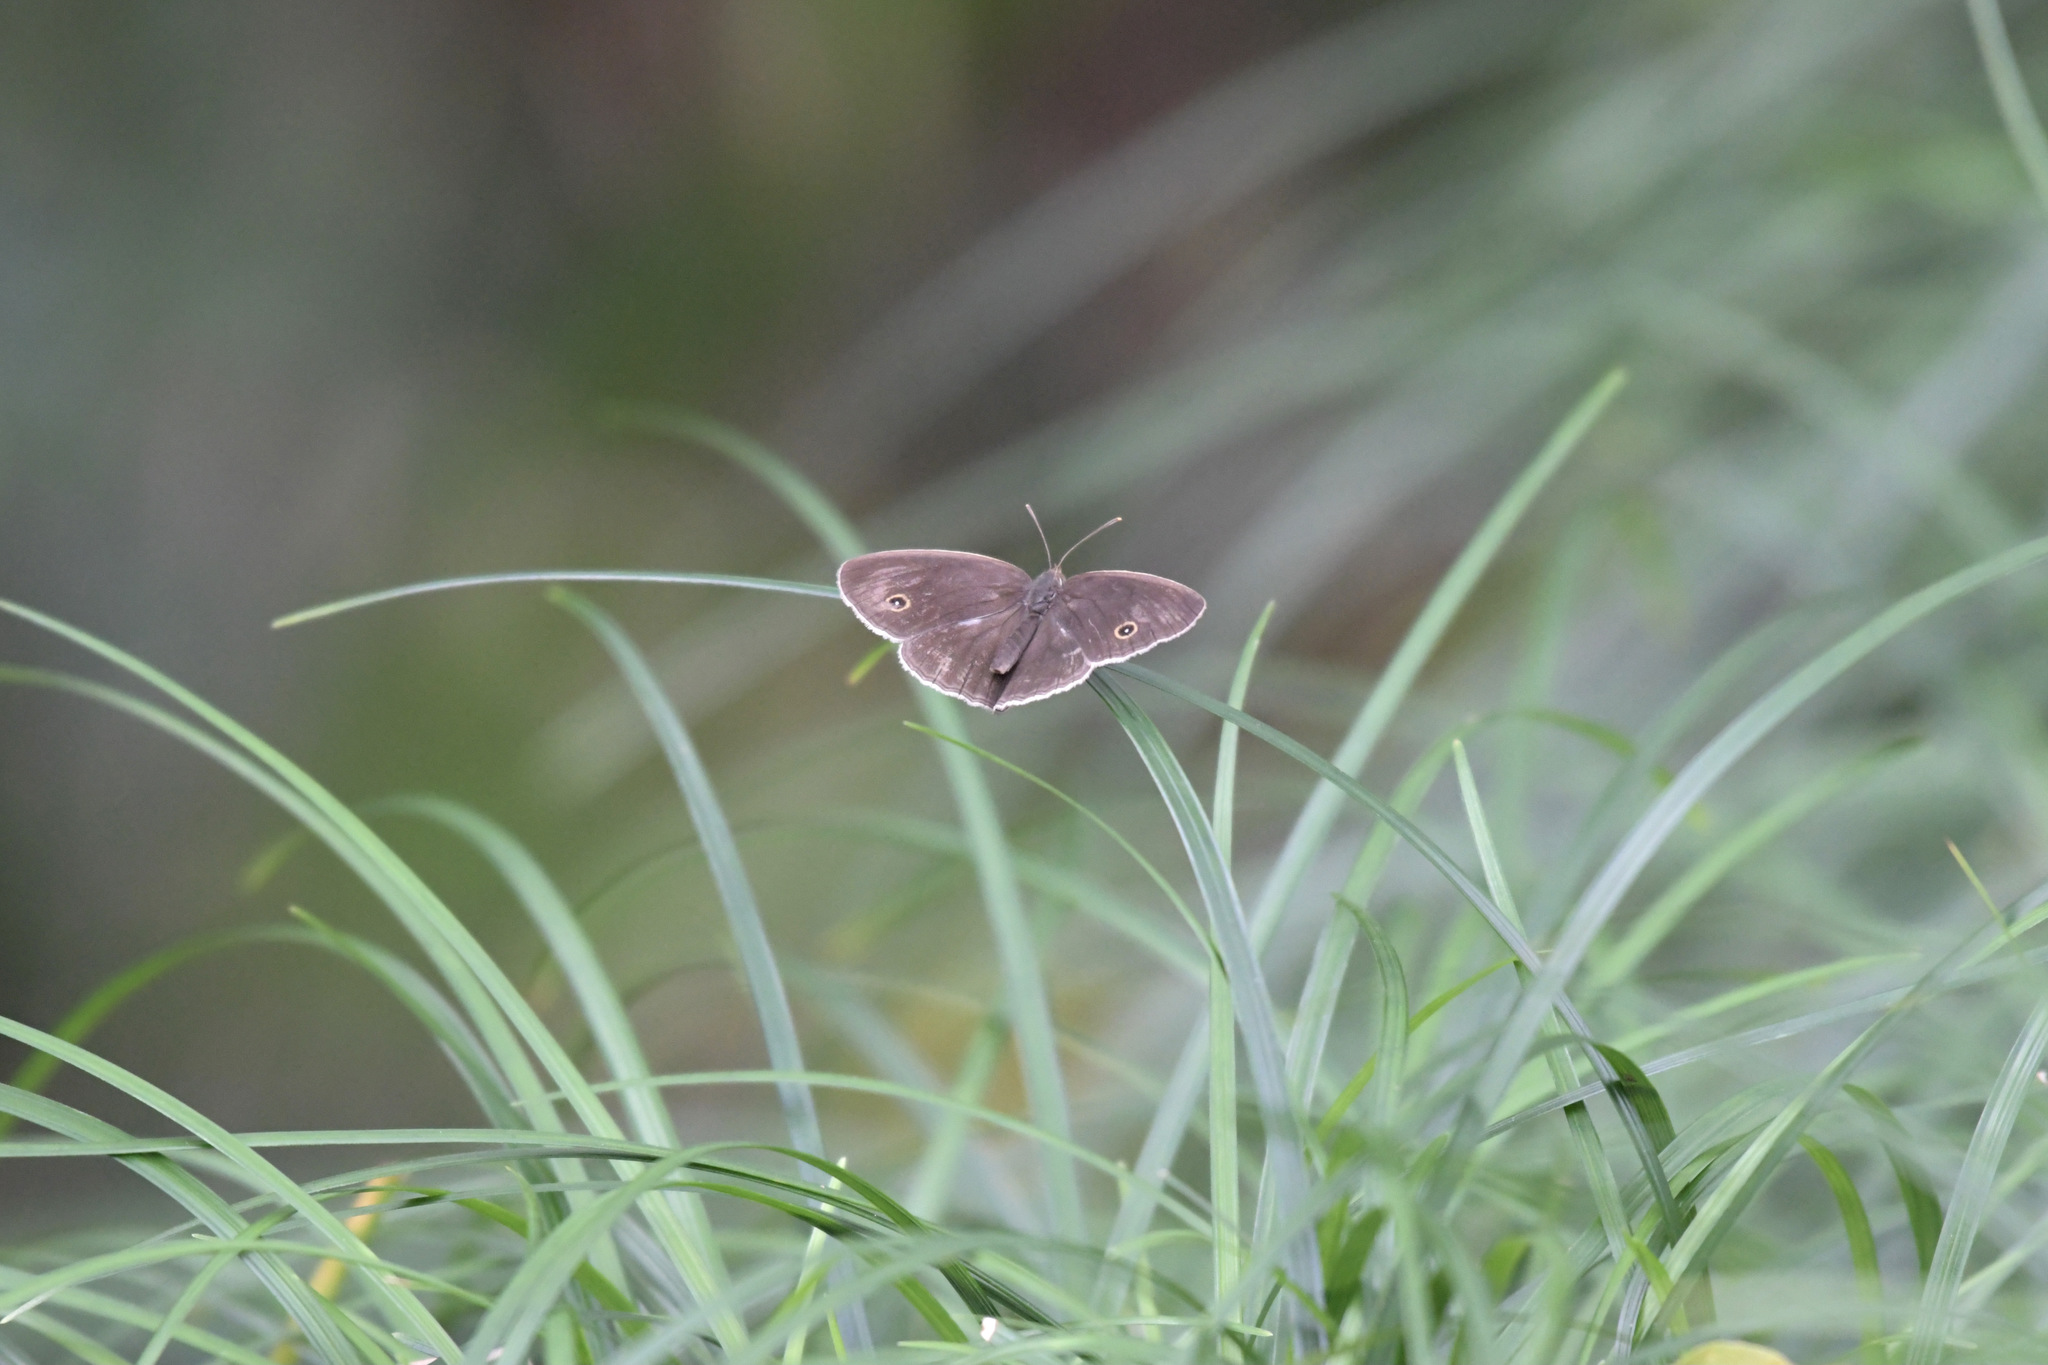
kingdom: Animalia
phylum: Arthropoda
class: Insecta
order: Lepidoptera
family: Nymphalidae
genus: Mycalesis
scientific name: Mycalesis sangaica
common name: Painted bushbrown
